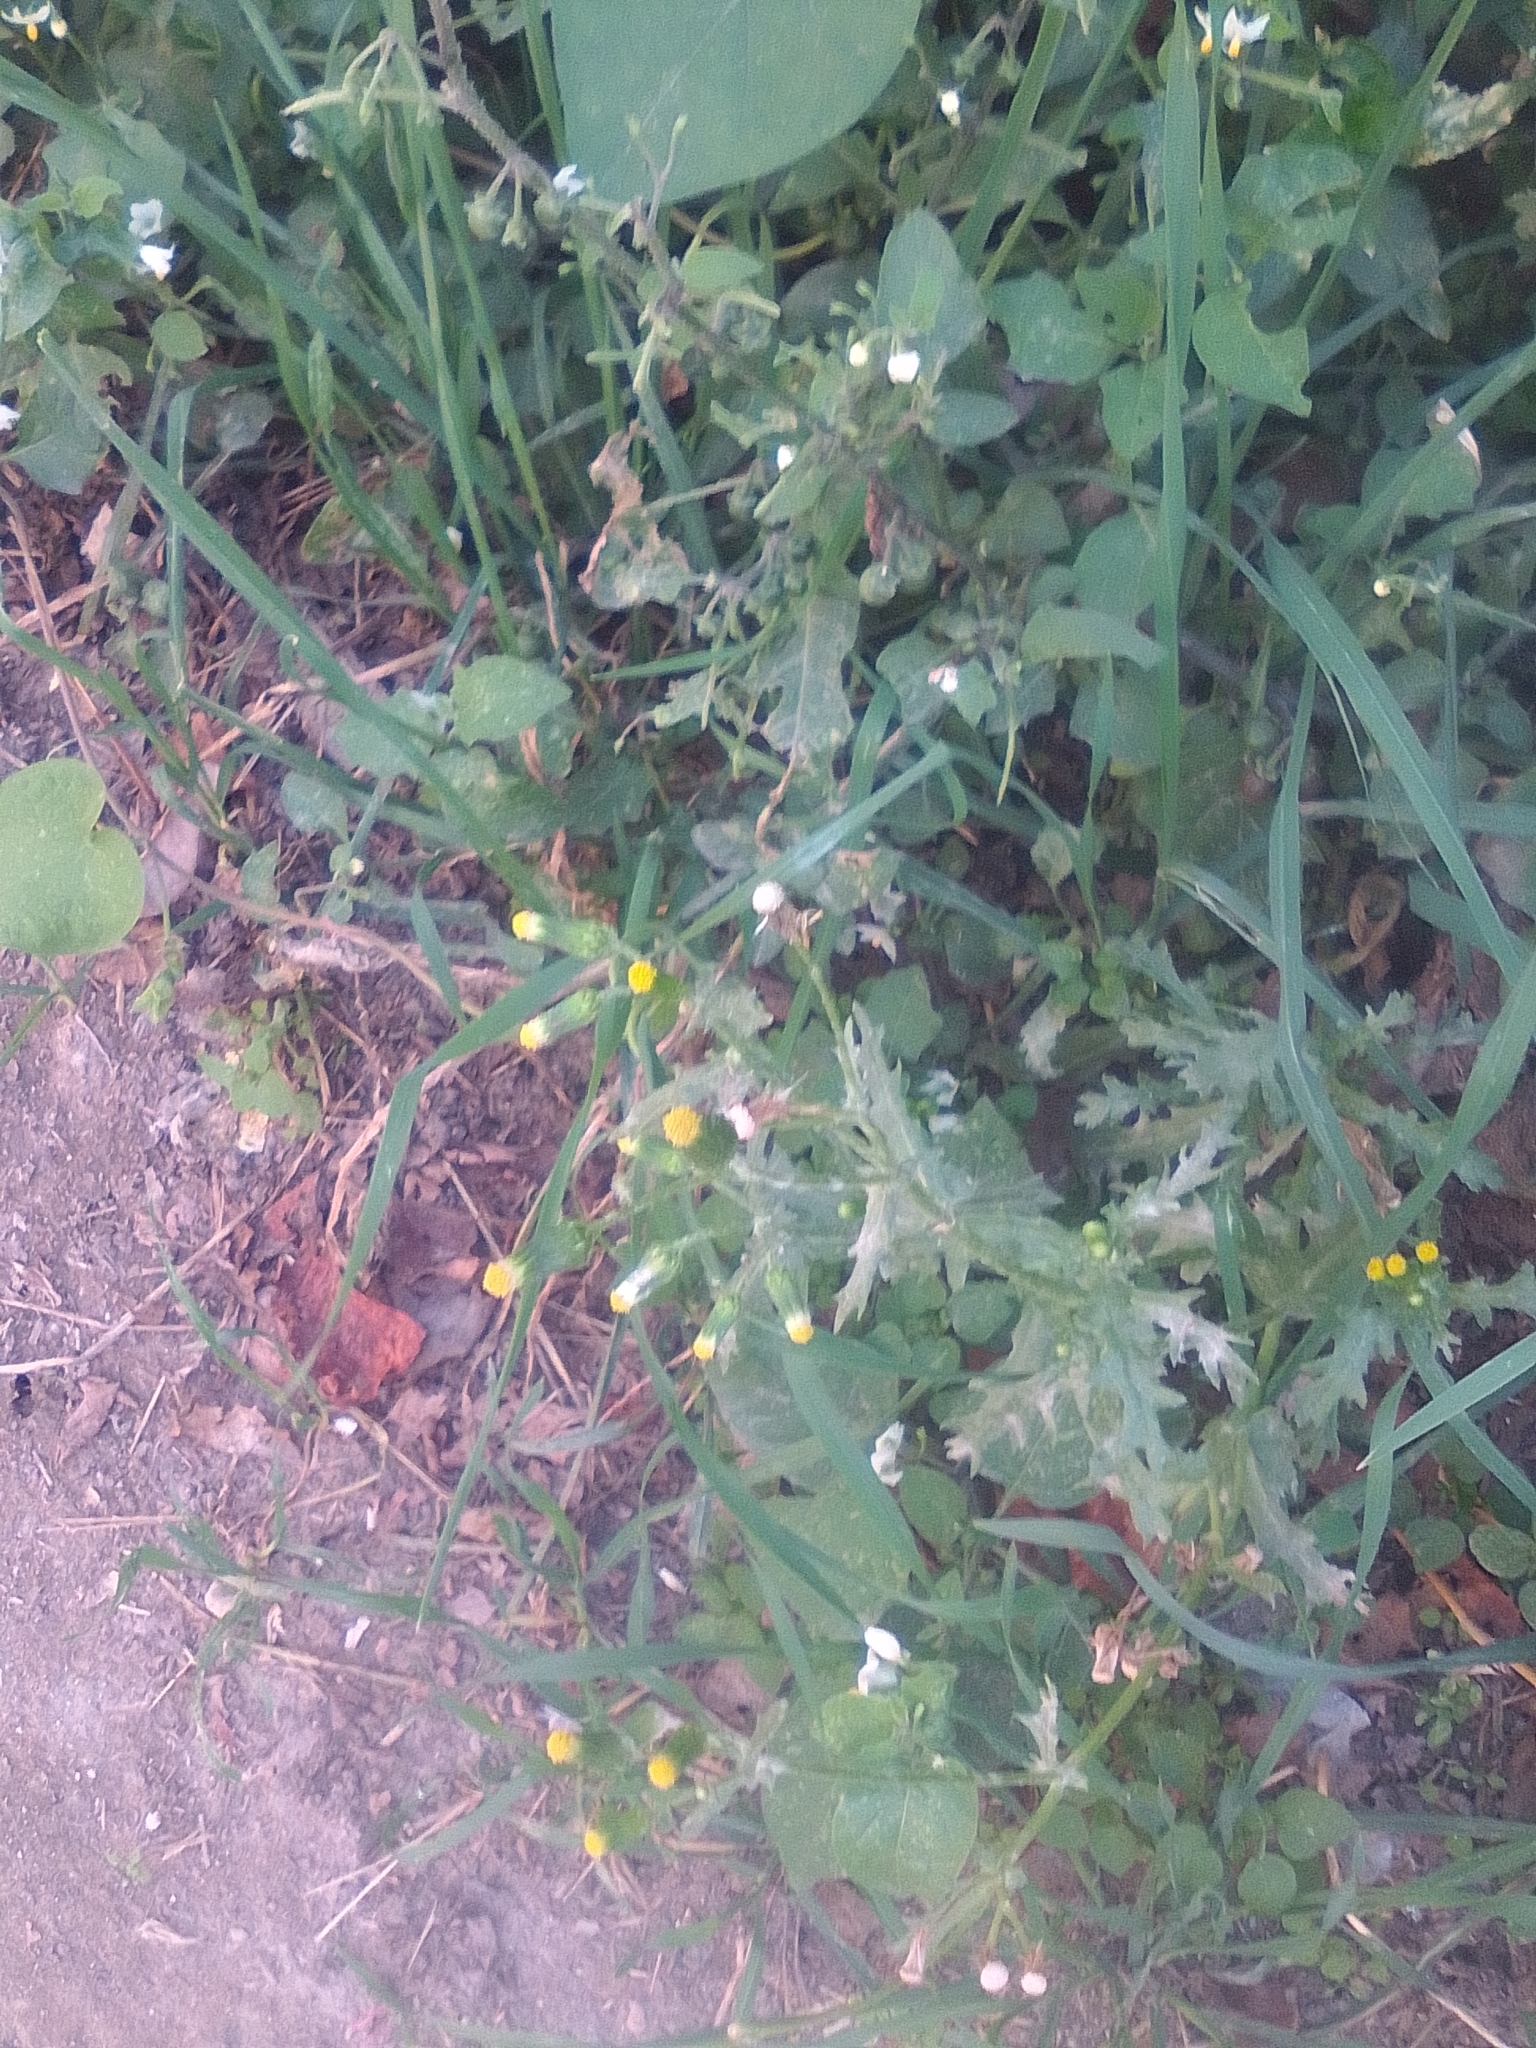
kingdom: Plantae
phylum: Tracheophyta
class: Magnoliopsida
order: Asterales
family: Asteraceae
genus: Senecio
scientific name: Senecio vulgaris
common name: Old-man-in-the-spring
